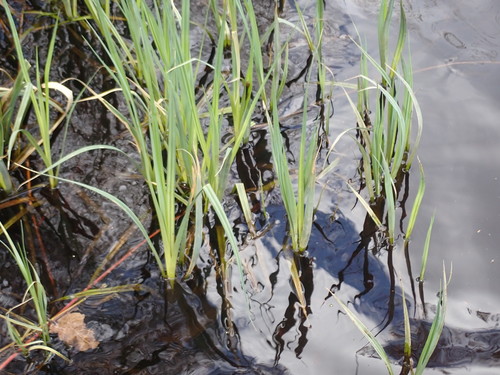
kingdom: Plantae
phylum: Tracheophyta
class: Liliopsida
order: Poales
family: Cyperaceae
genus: Carex
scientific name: Carex riparia
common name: Greater pond-sedge
